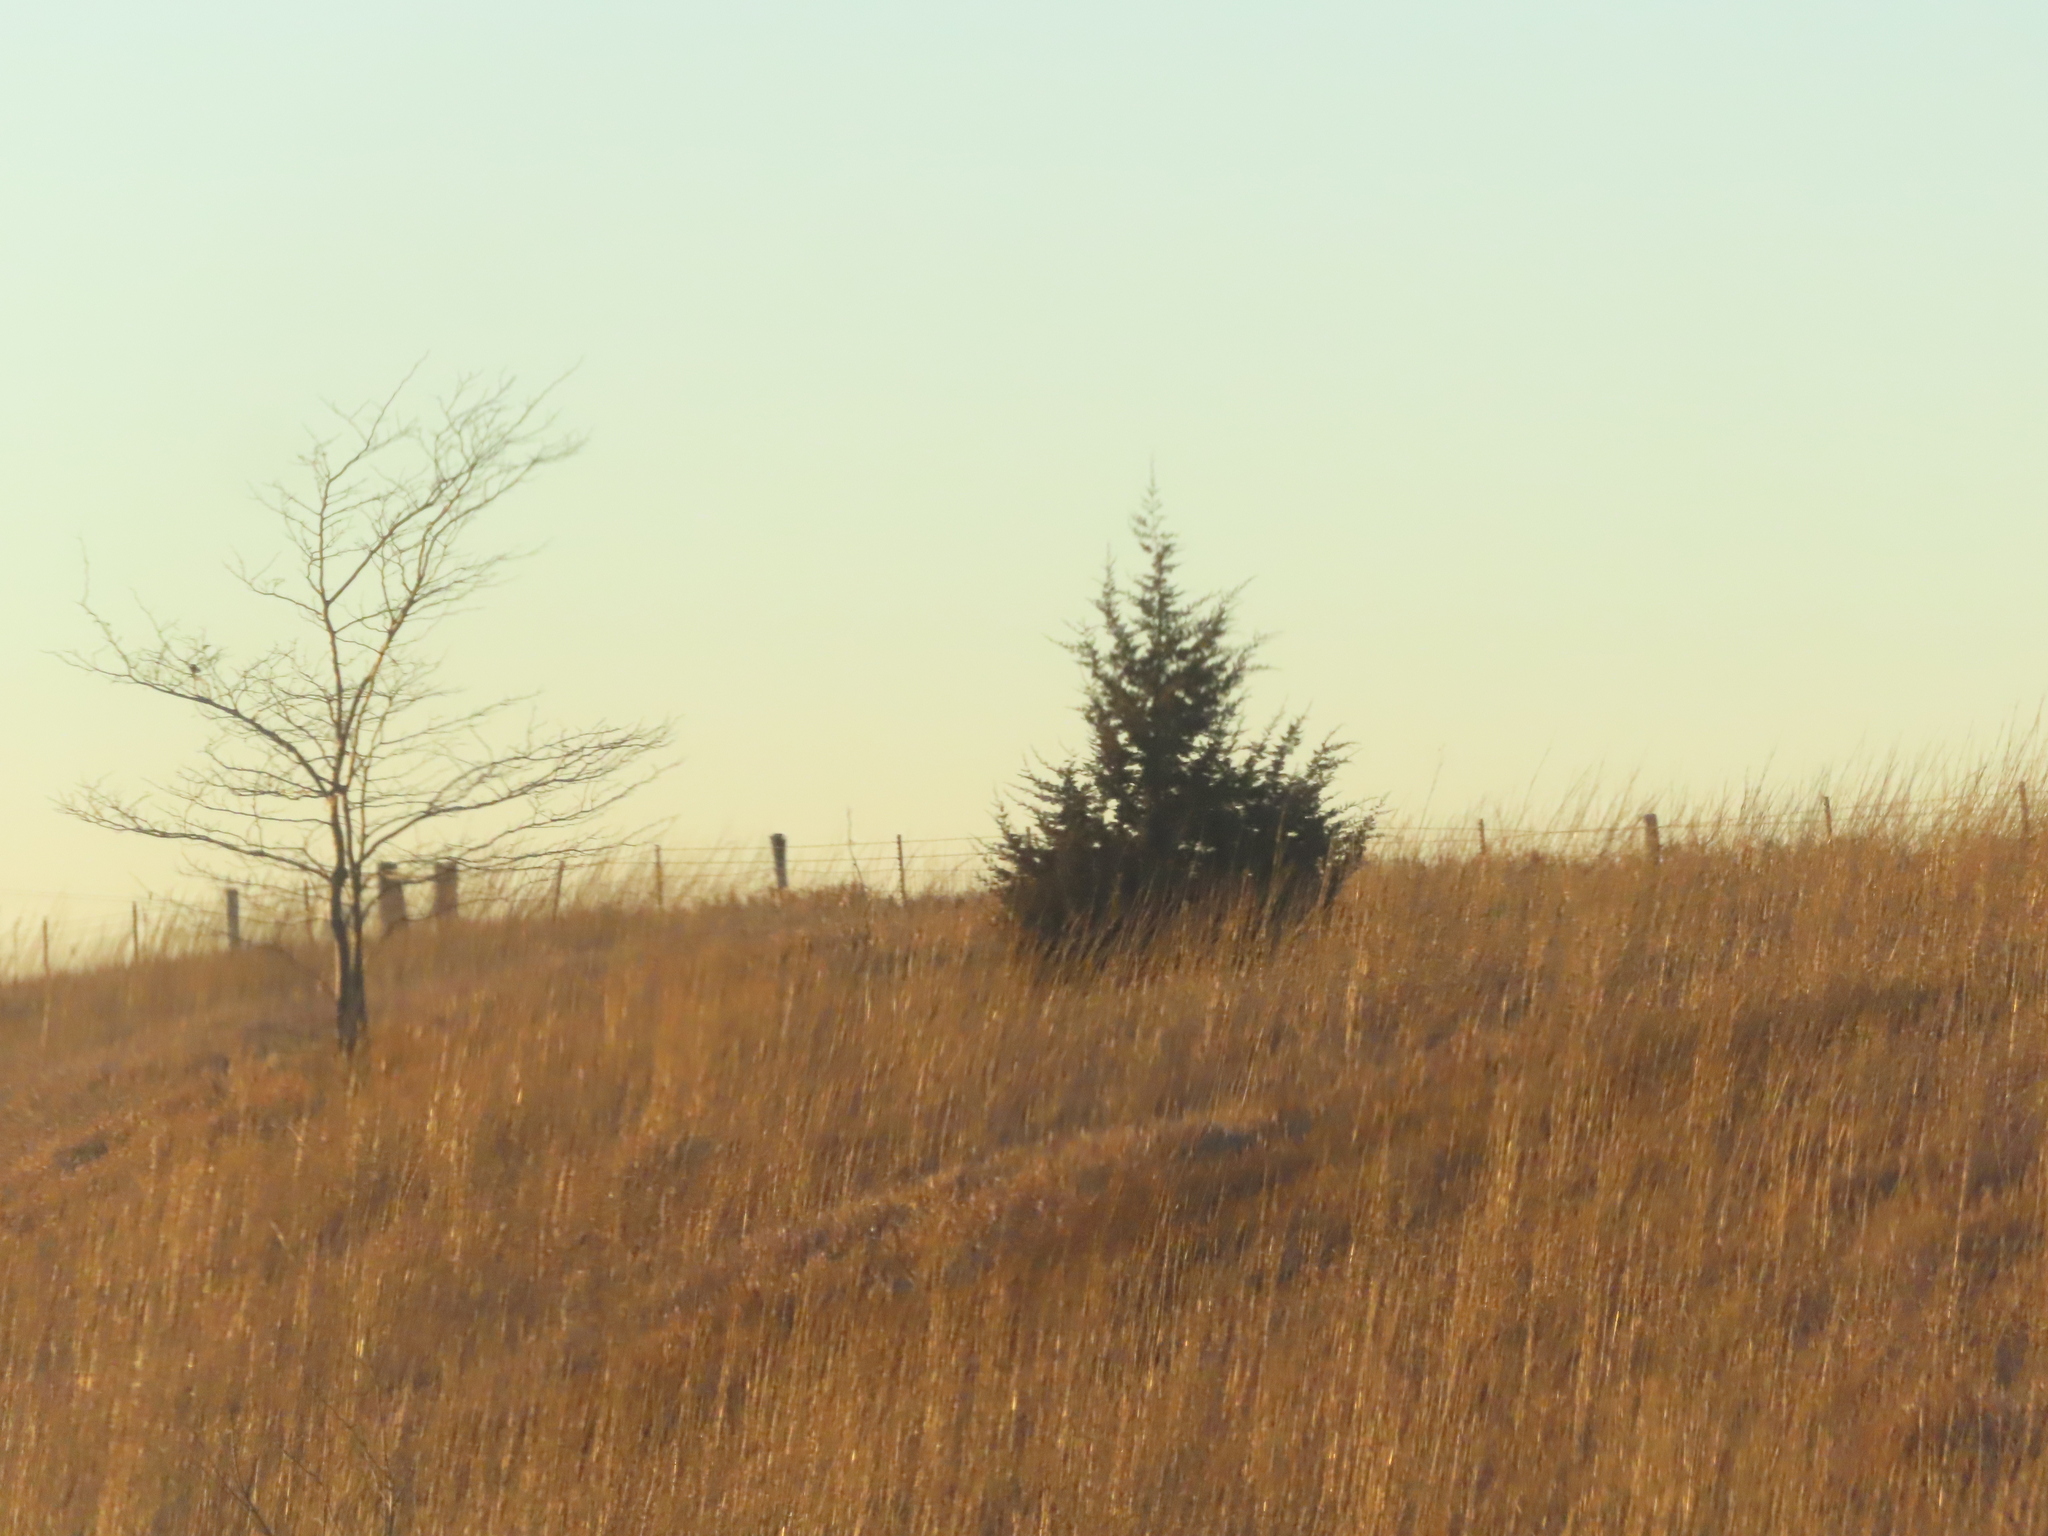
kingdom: Plantae
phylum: Tracheophyta
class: Pinopsida
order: Pinales
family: Cupressaceae
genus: Juniperus
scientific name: Juniperus virginiana
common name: Red juniper
